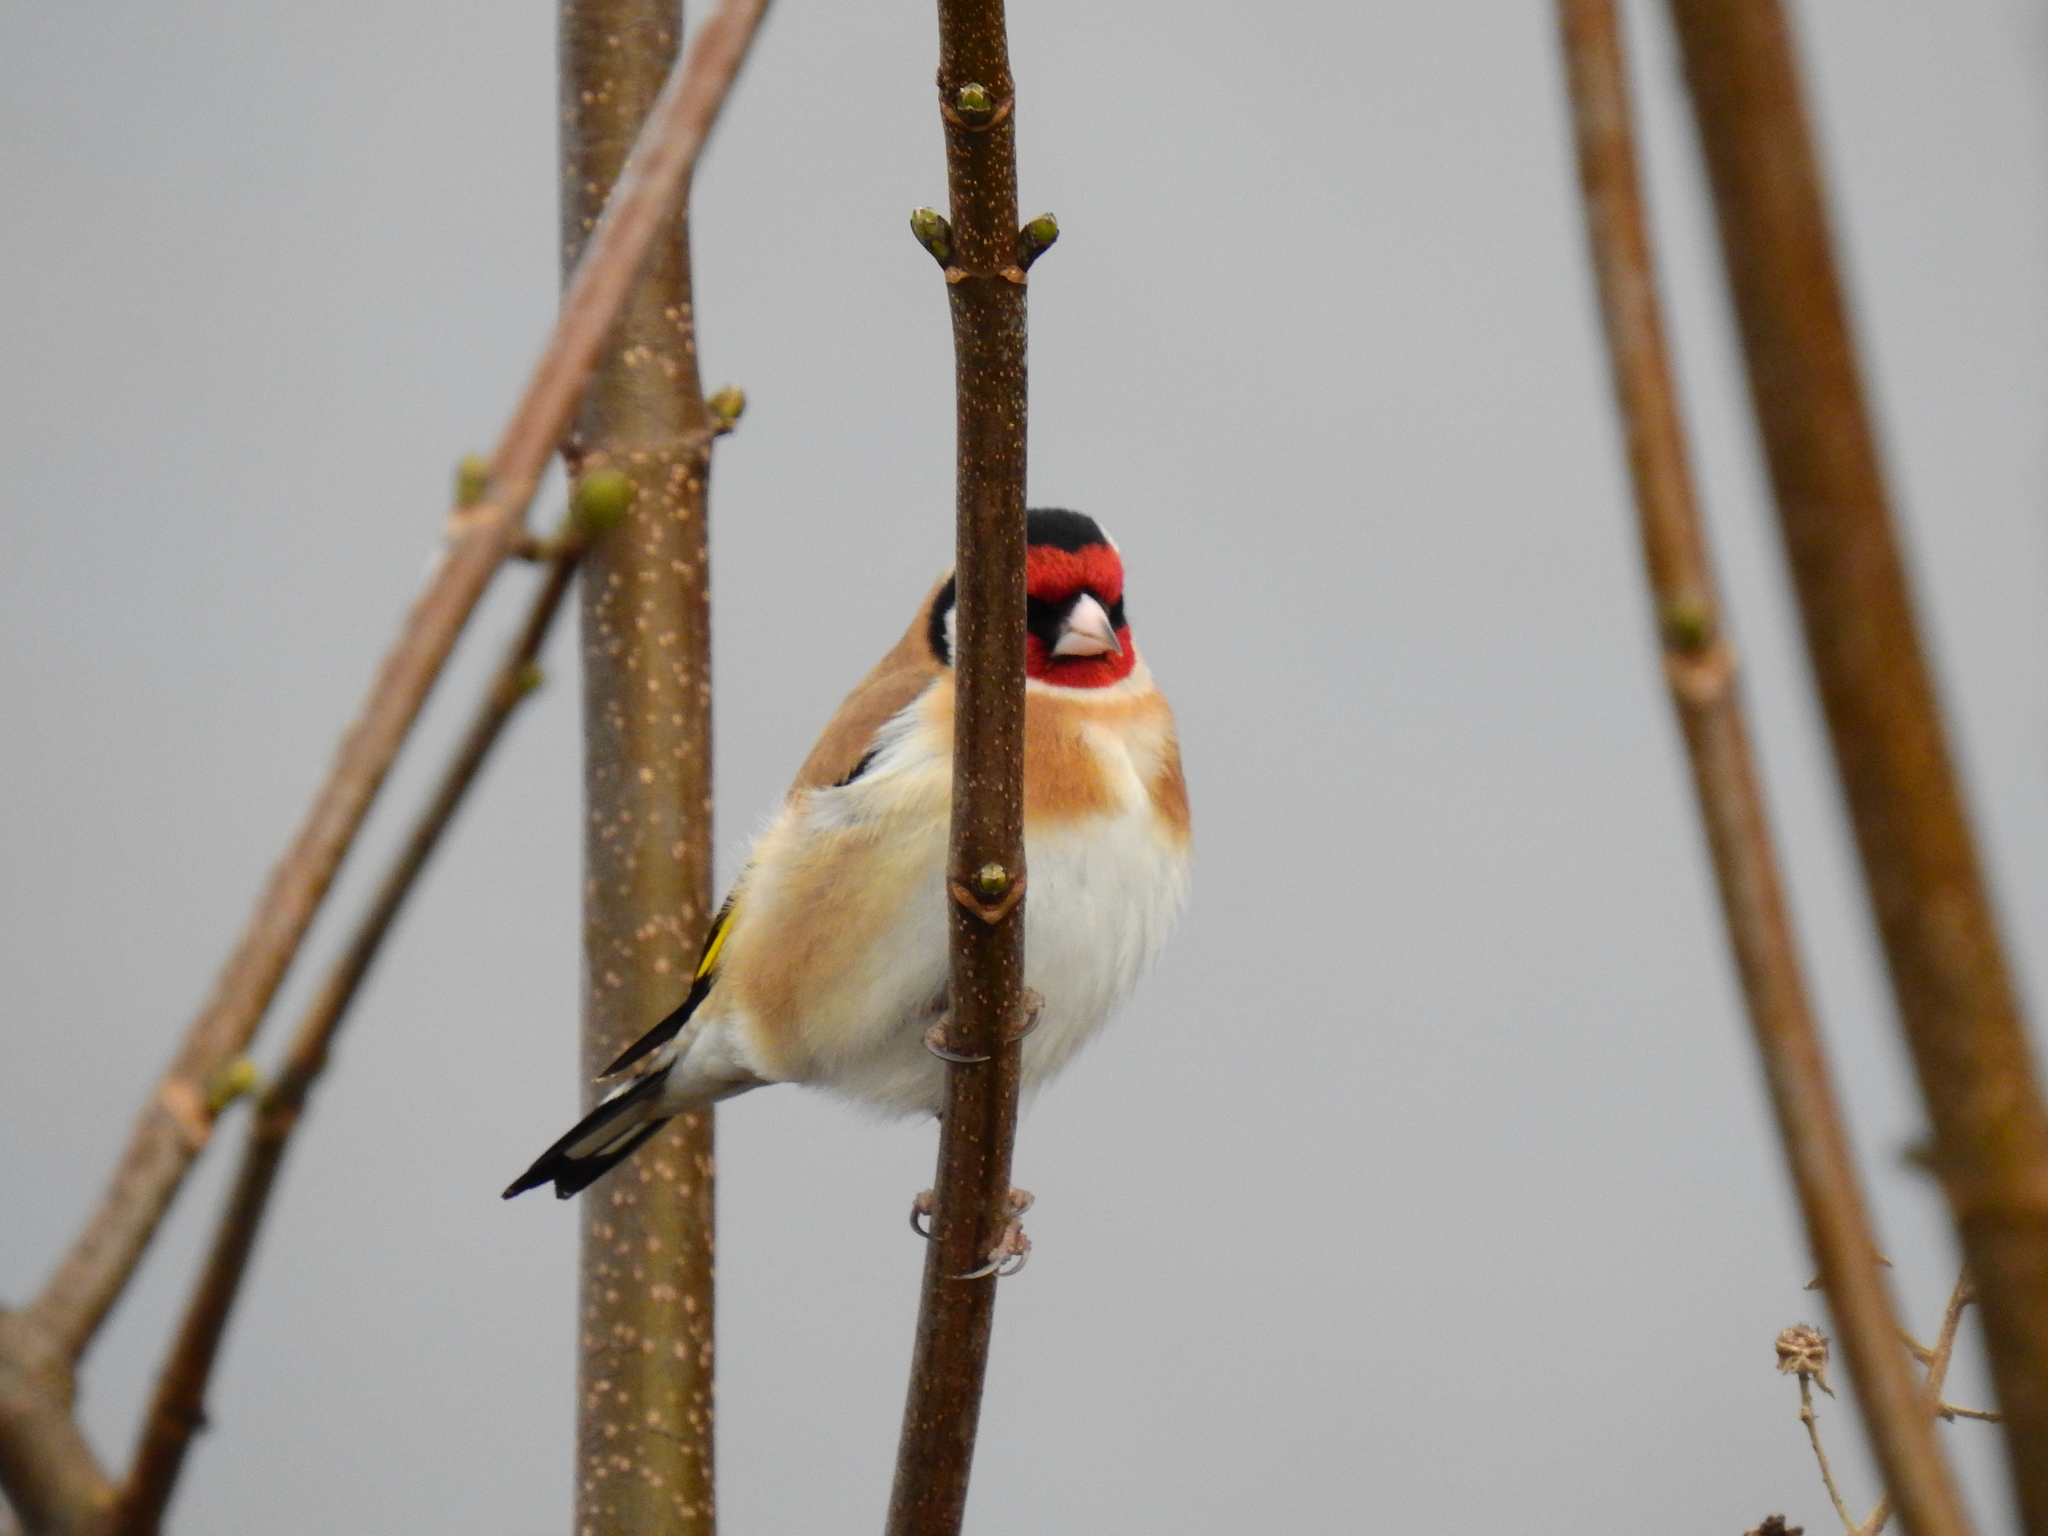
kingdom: Animalia
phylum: Chordata
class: Aves
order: Passeriformes
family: Fringillidae
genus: Carduelis
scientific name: Carduelis carduelis
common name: European goldfinch
